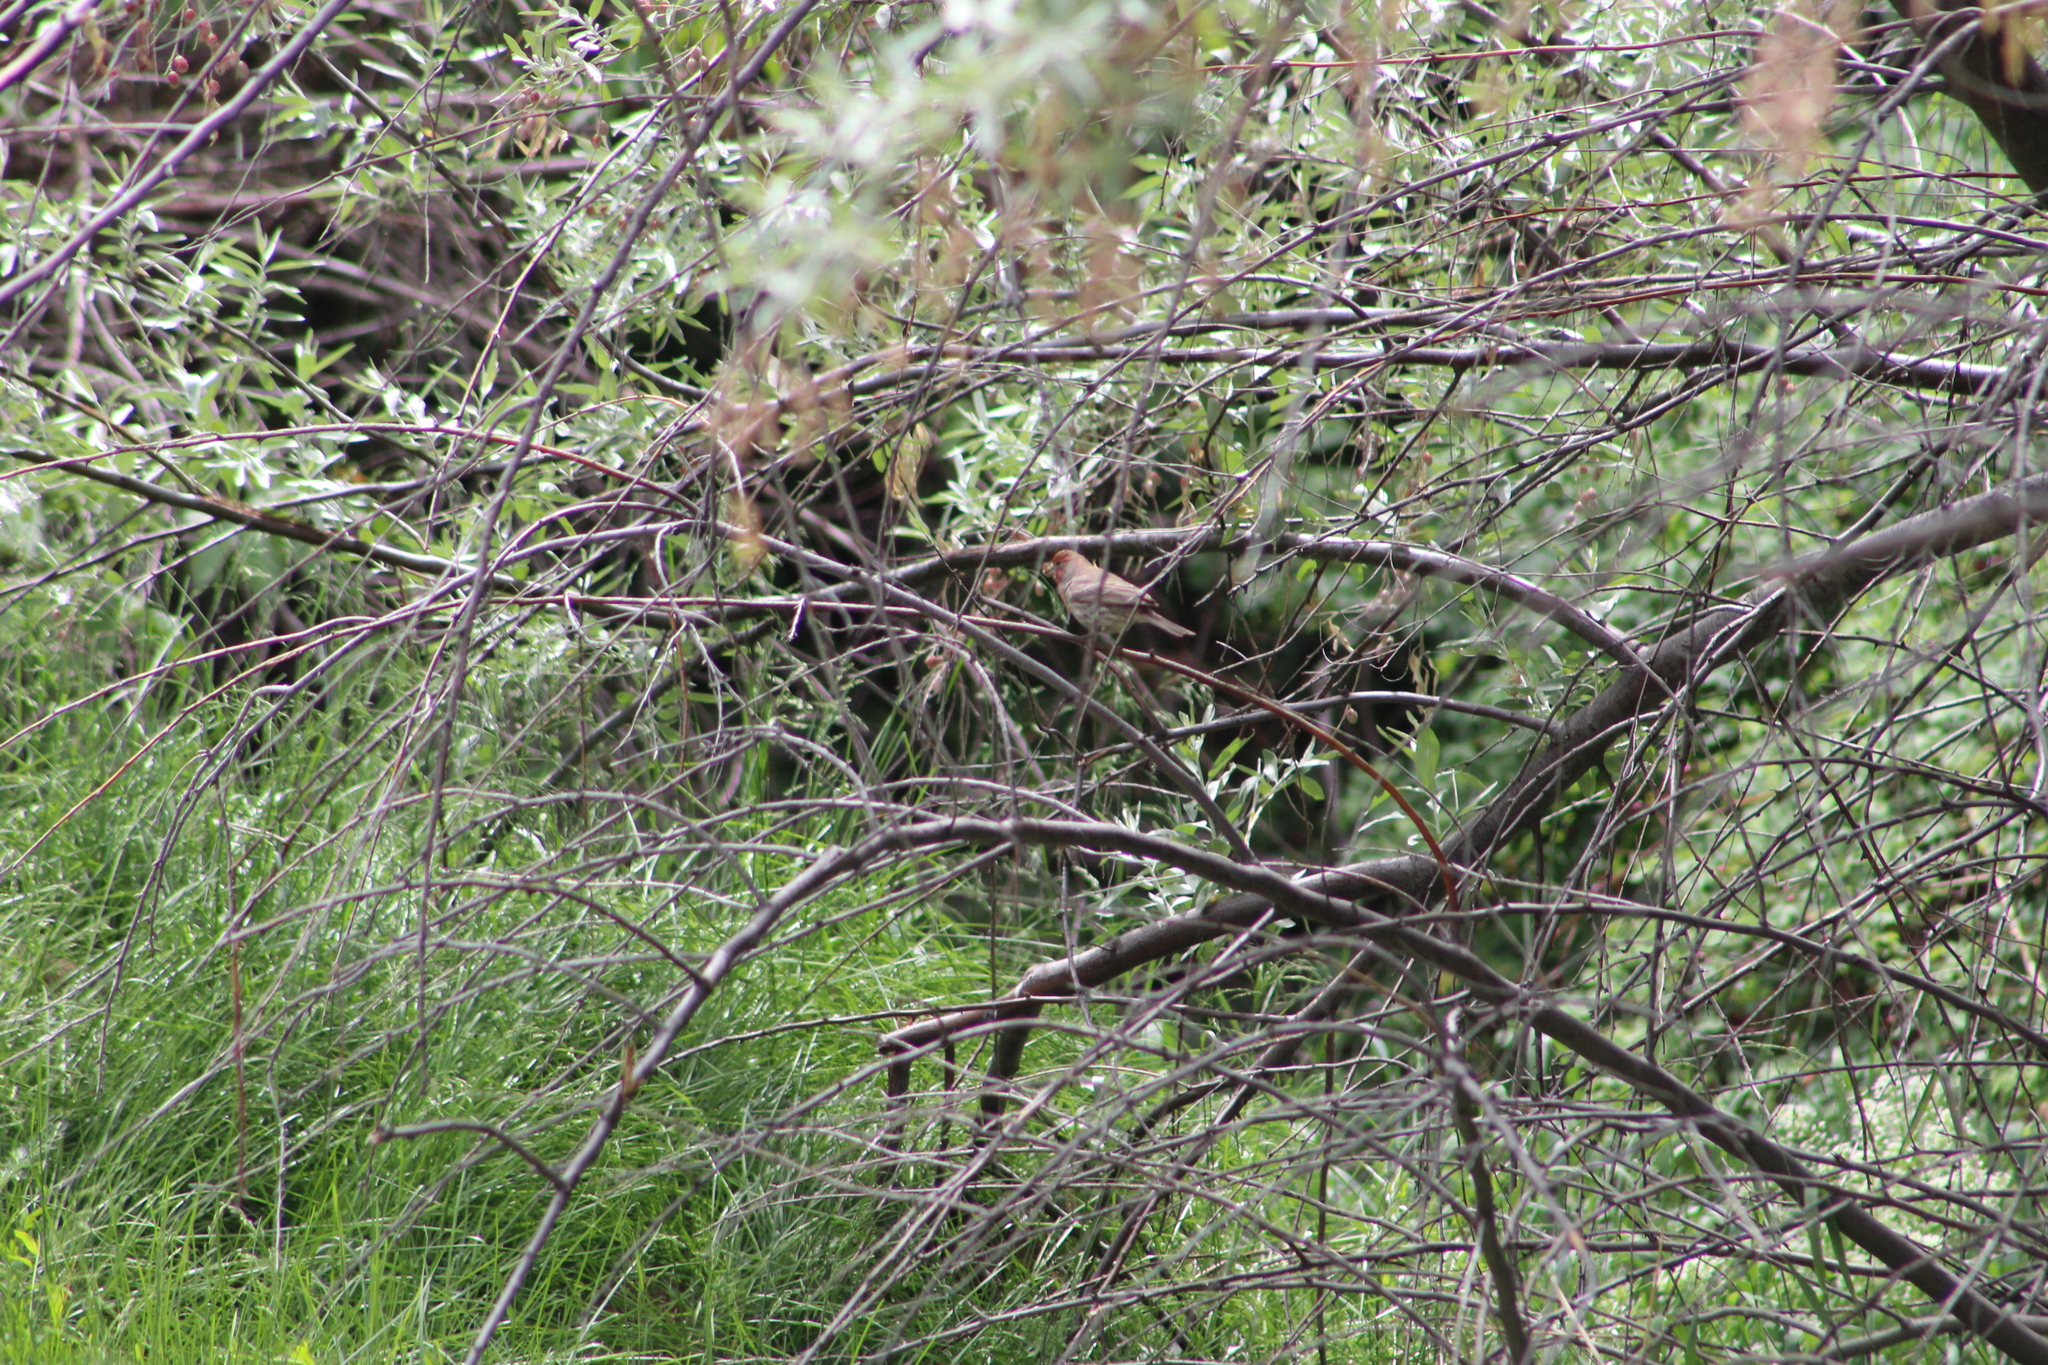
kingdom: Animalia
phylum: Chordata
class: Aves
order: Passeriformes
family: Fringillidae
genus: Haemorhous
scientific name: Haemorhous mexicanus
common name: House finch
